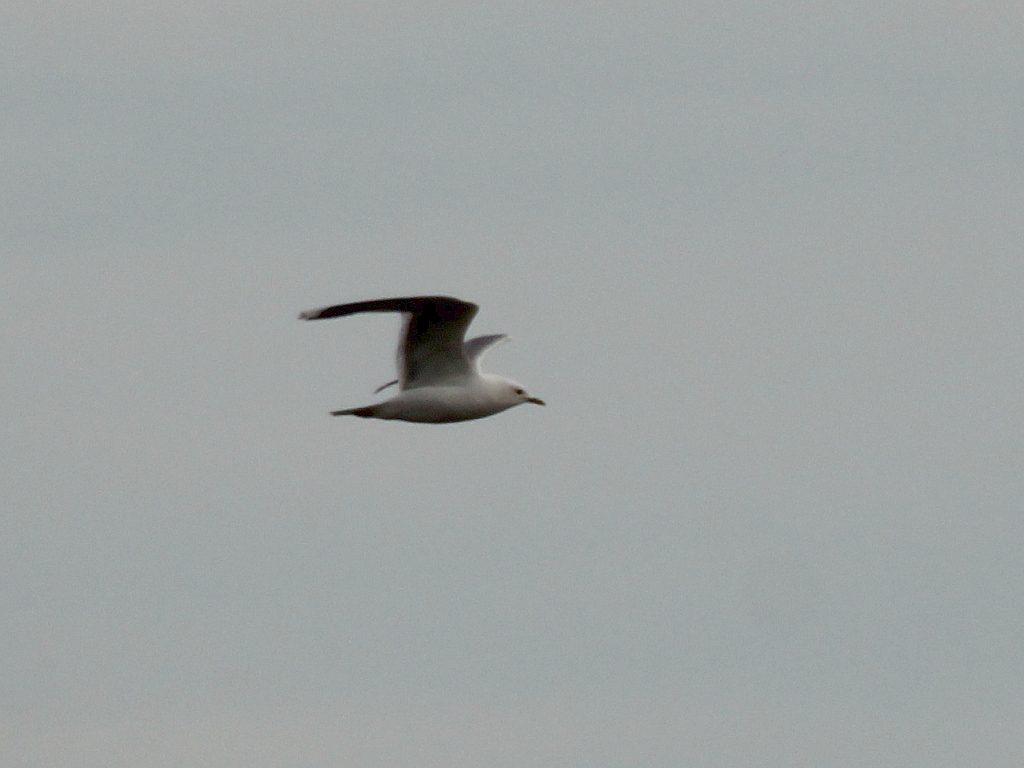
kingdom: Animalia
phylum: Chordata
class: Aves
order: Charadriiformes
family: Laridae
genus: Larus
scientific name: Larus canus
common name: Mew gull
